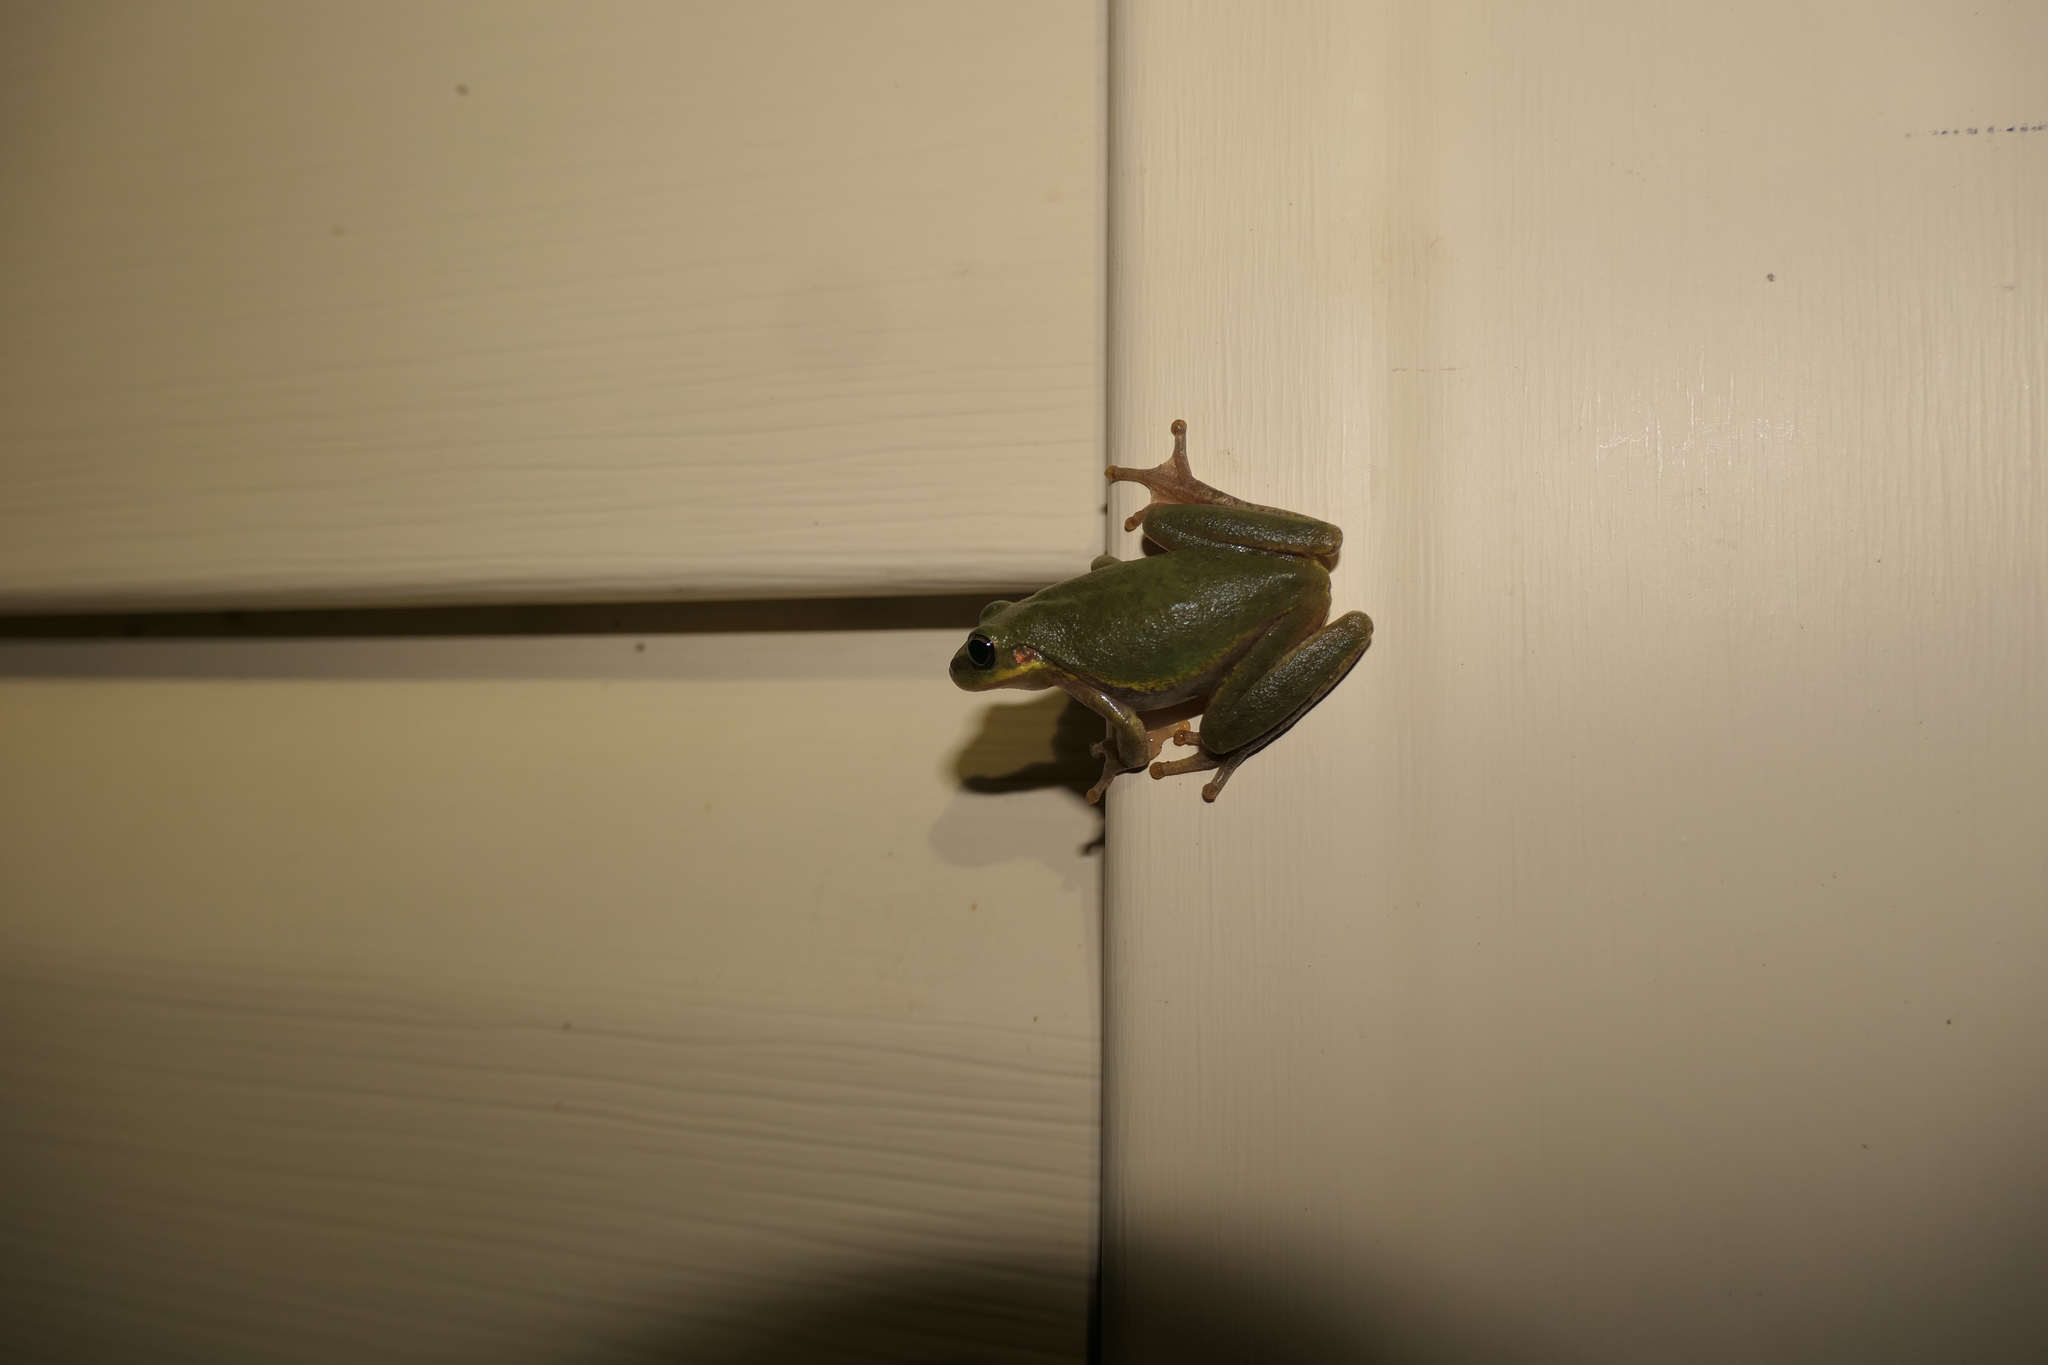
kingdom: Animalia
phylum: Chordata
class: Amphibia
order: Anura
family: Hylidae
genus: Dryophytes
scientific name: Dryophytes squirellus
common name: Squirrel treefrog
